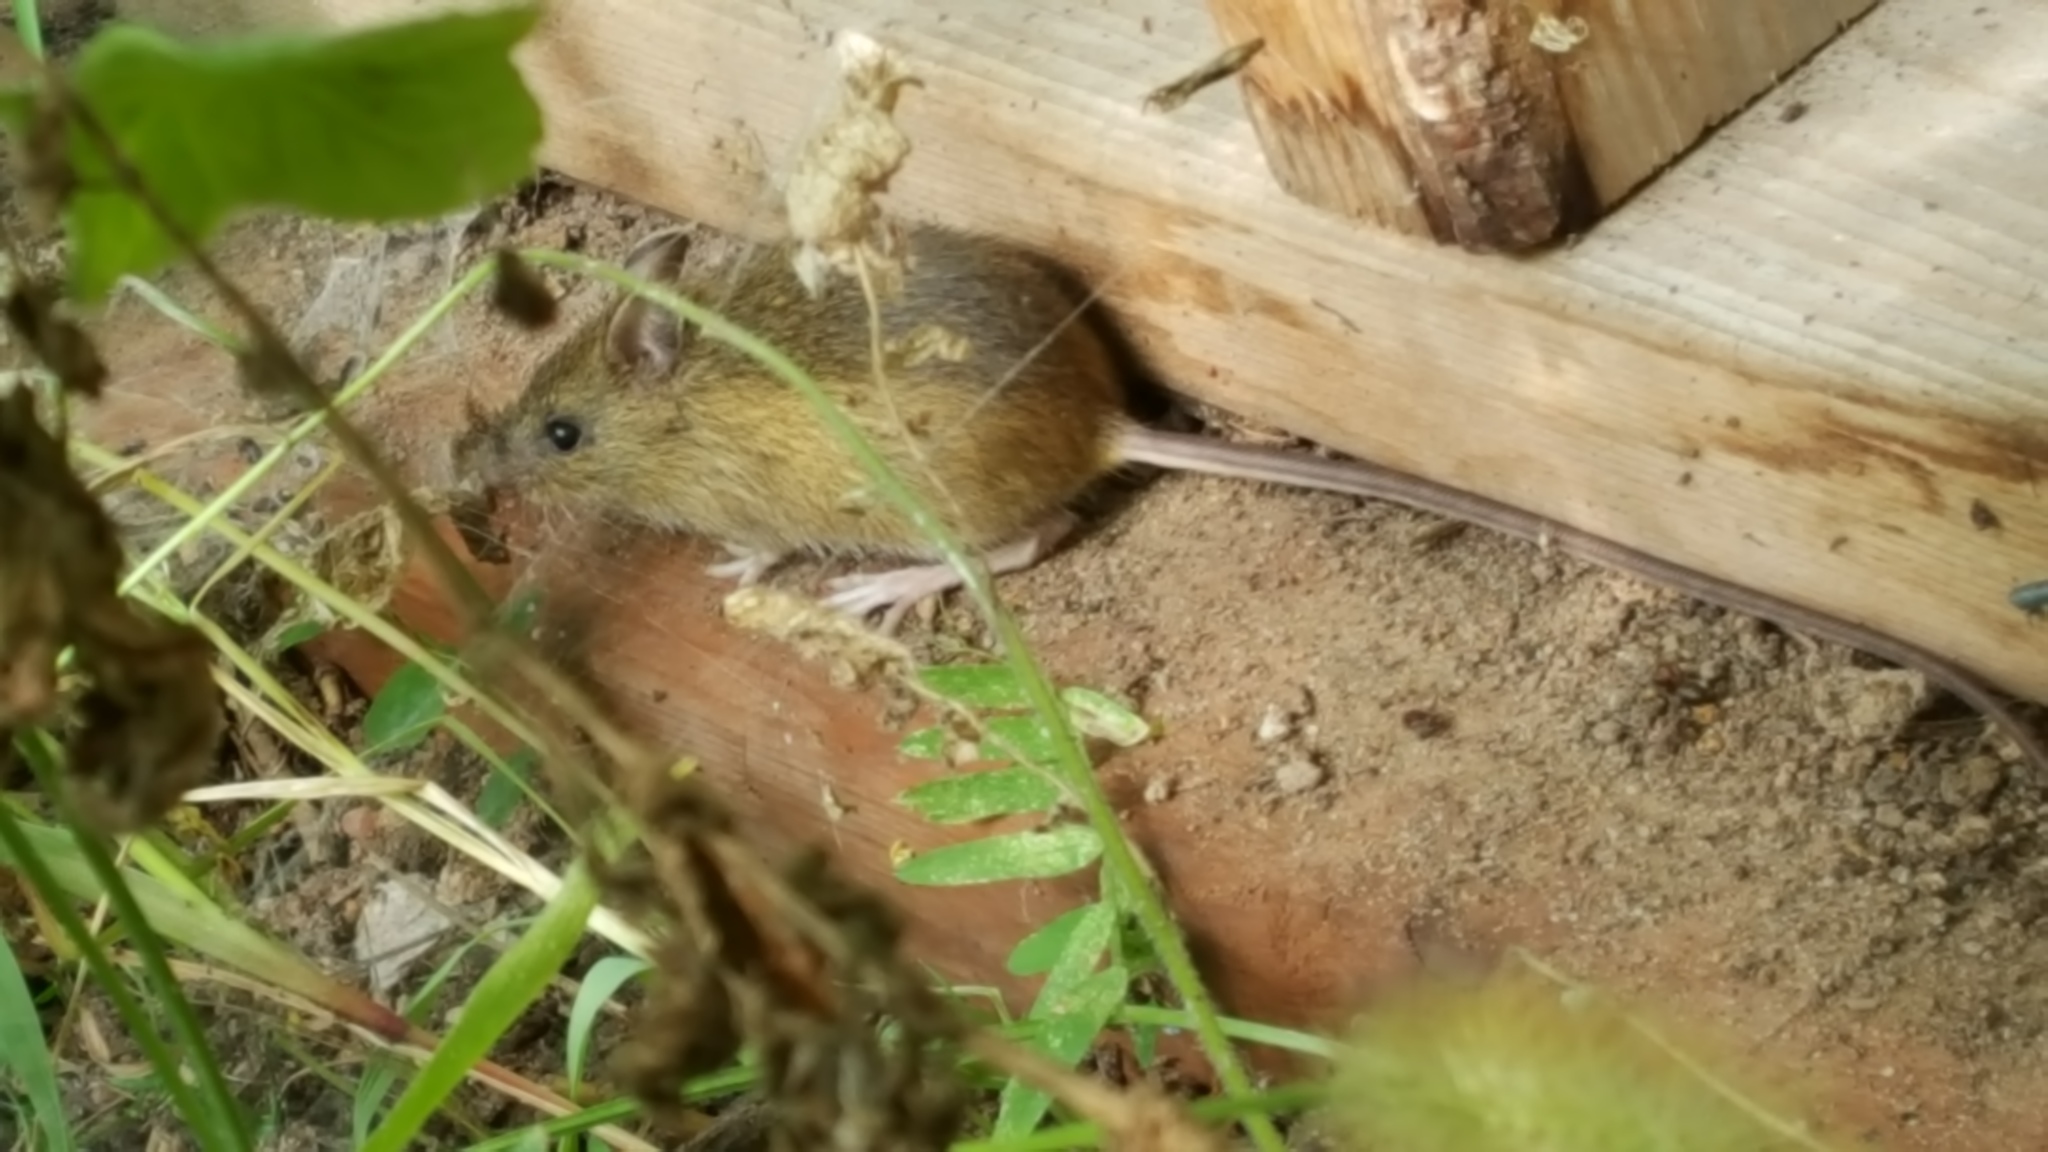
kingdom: Animalia
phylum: Chordata
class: Mammalia
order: Rodentia
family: Dipodidae
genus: Zapus
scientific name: Zapus hudsonius
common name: Meadow jumping mouse
